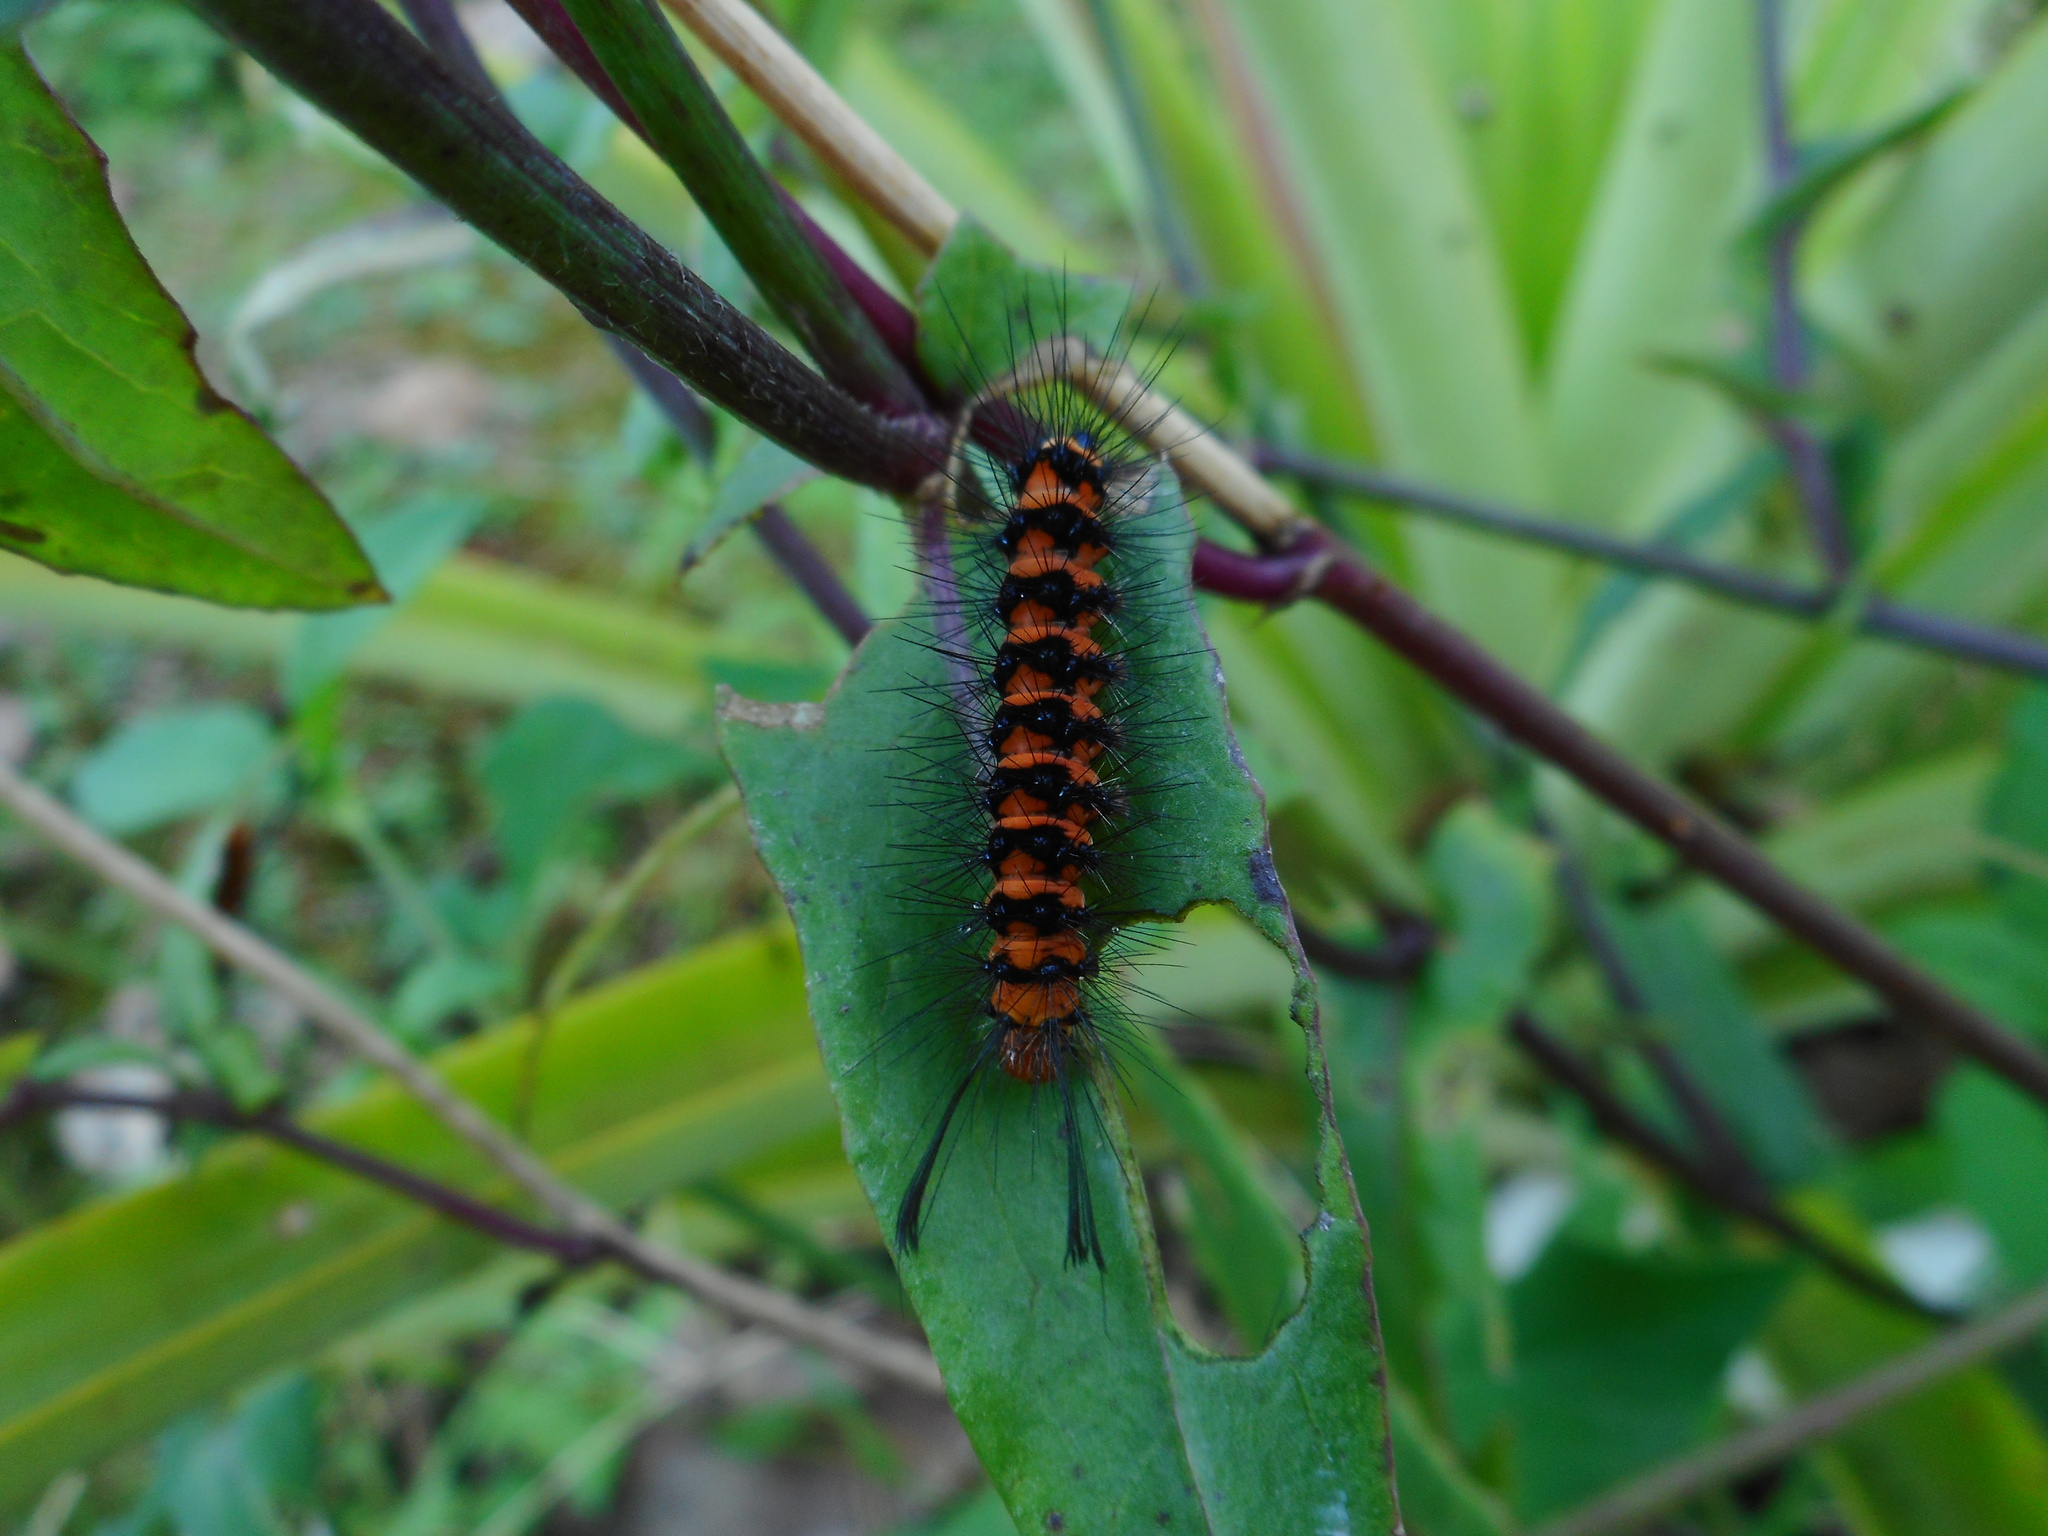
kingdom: Animalia
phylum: Arthropoda
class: Insecta
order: Lepidoptera
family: Erebidae
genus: Nyctemera
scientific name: Nyctemera lacticinia
